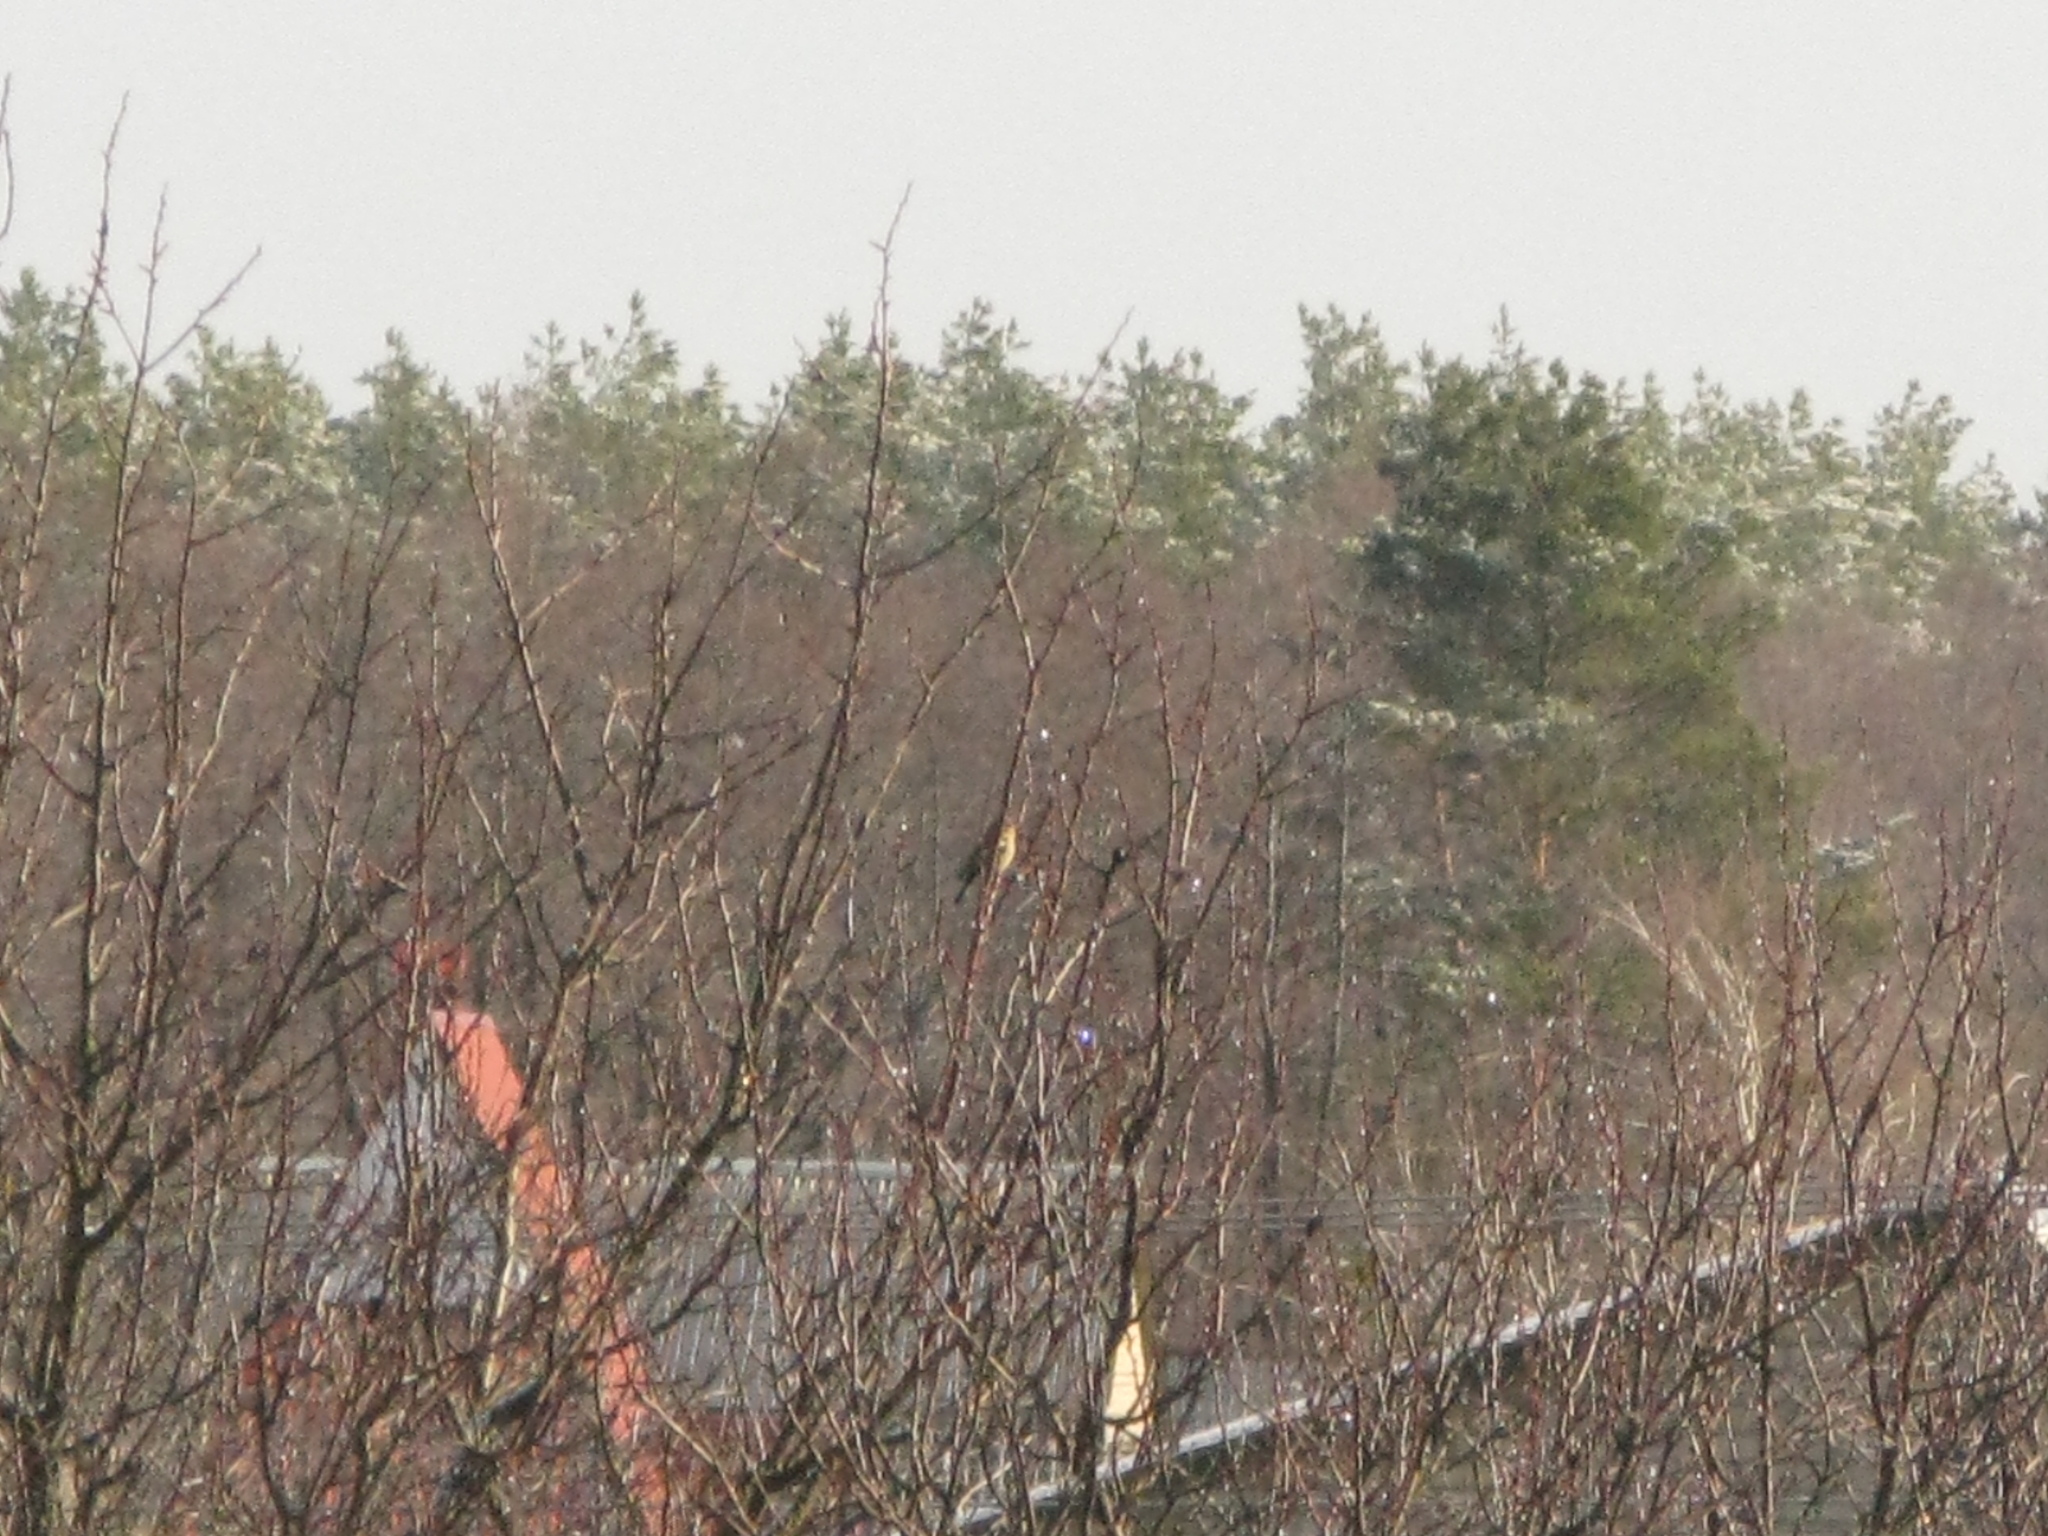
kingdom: Animalia
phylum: Chordata
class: Aves
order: Passeriformes
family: Fringillidae
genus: Fringilla
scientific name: Fringilla coelebs
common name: Common chaffinch
